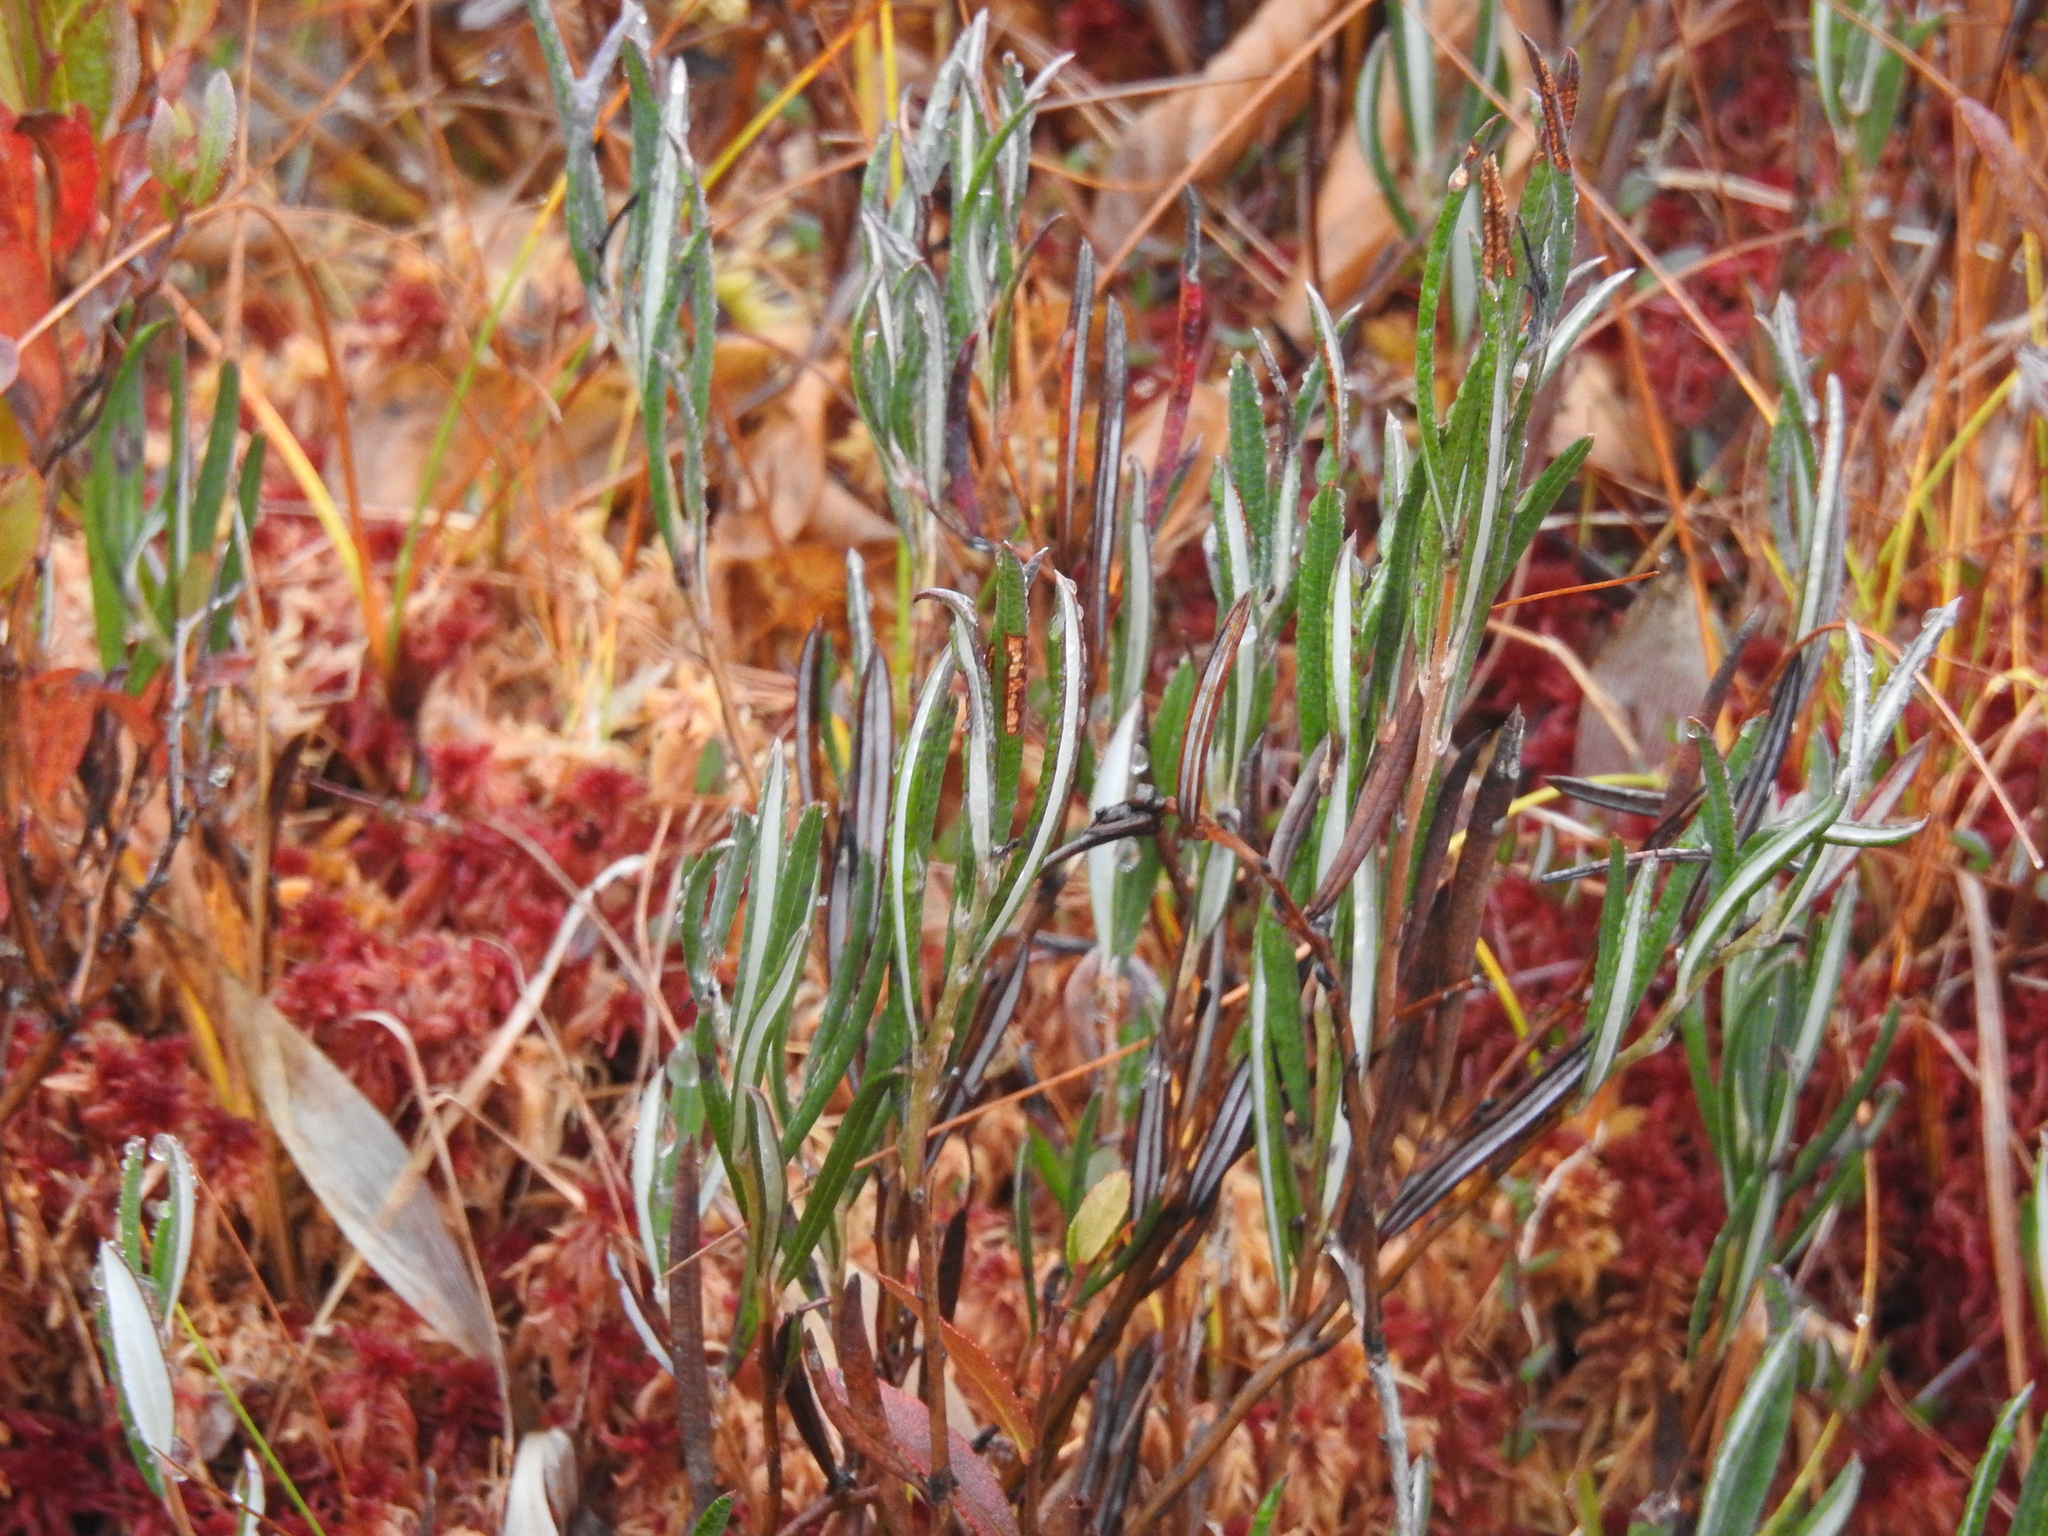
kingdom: Plantae
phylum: Tracheophyta
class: Magnoliopsida
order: Ericales
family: Ericaceae
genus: Andromeda
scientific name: Andromeda polifolia
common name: Bog-rosemary
